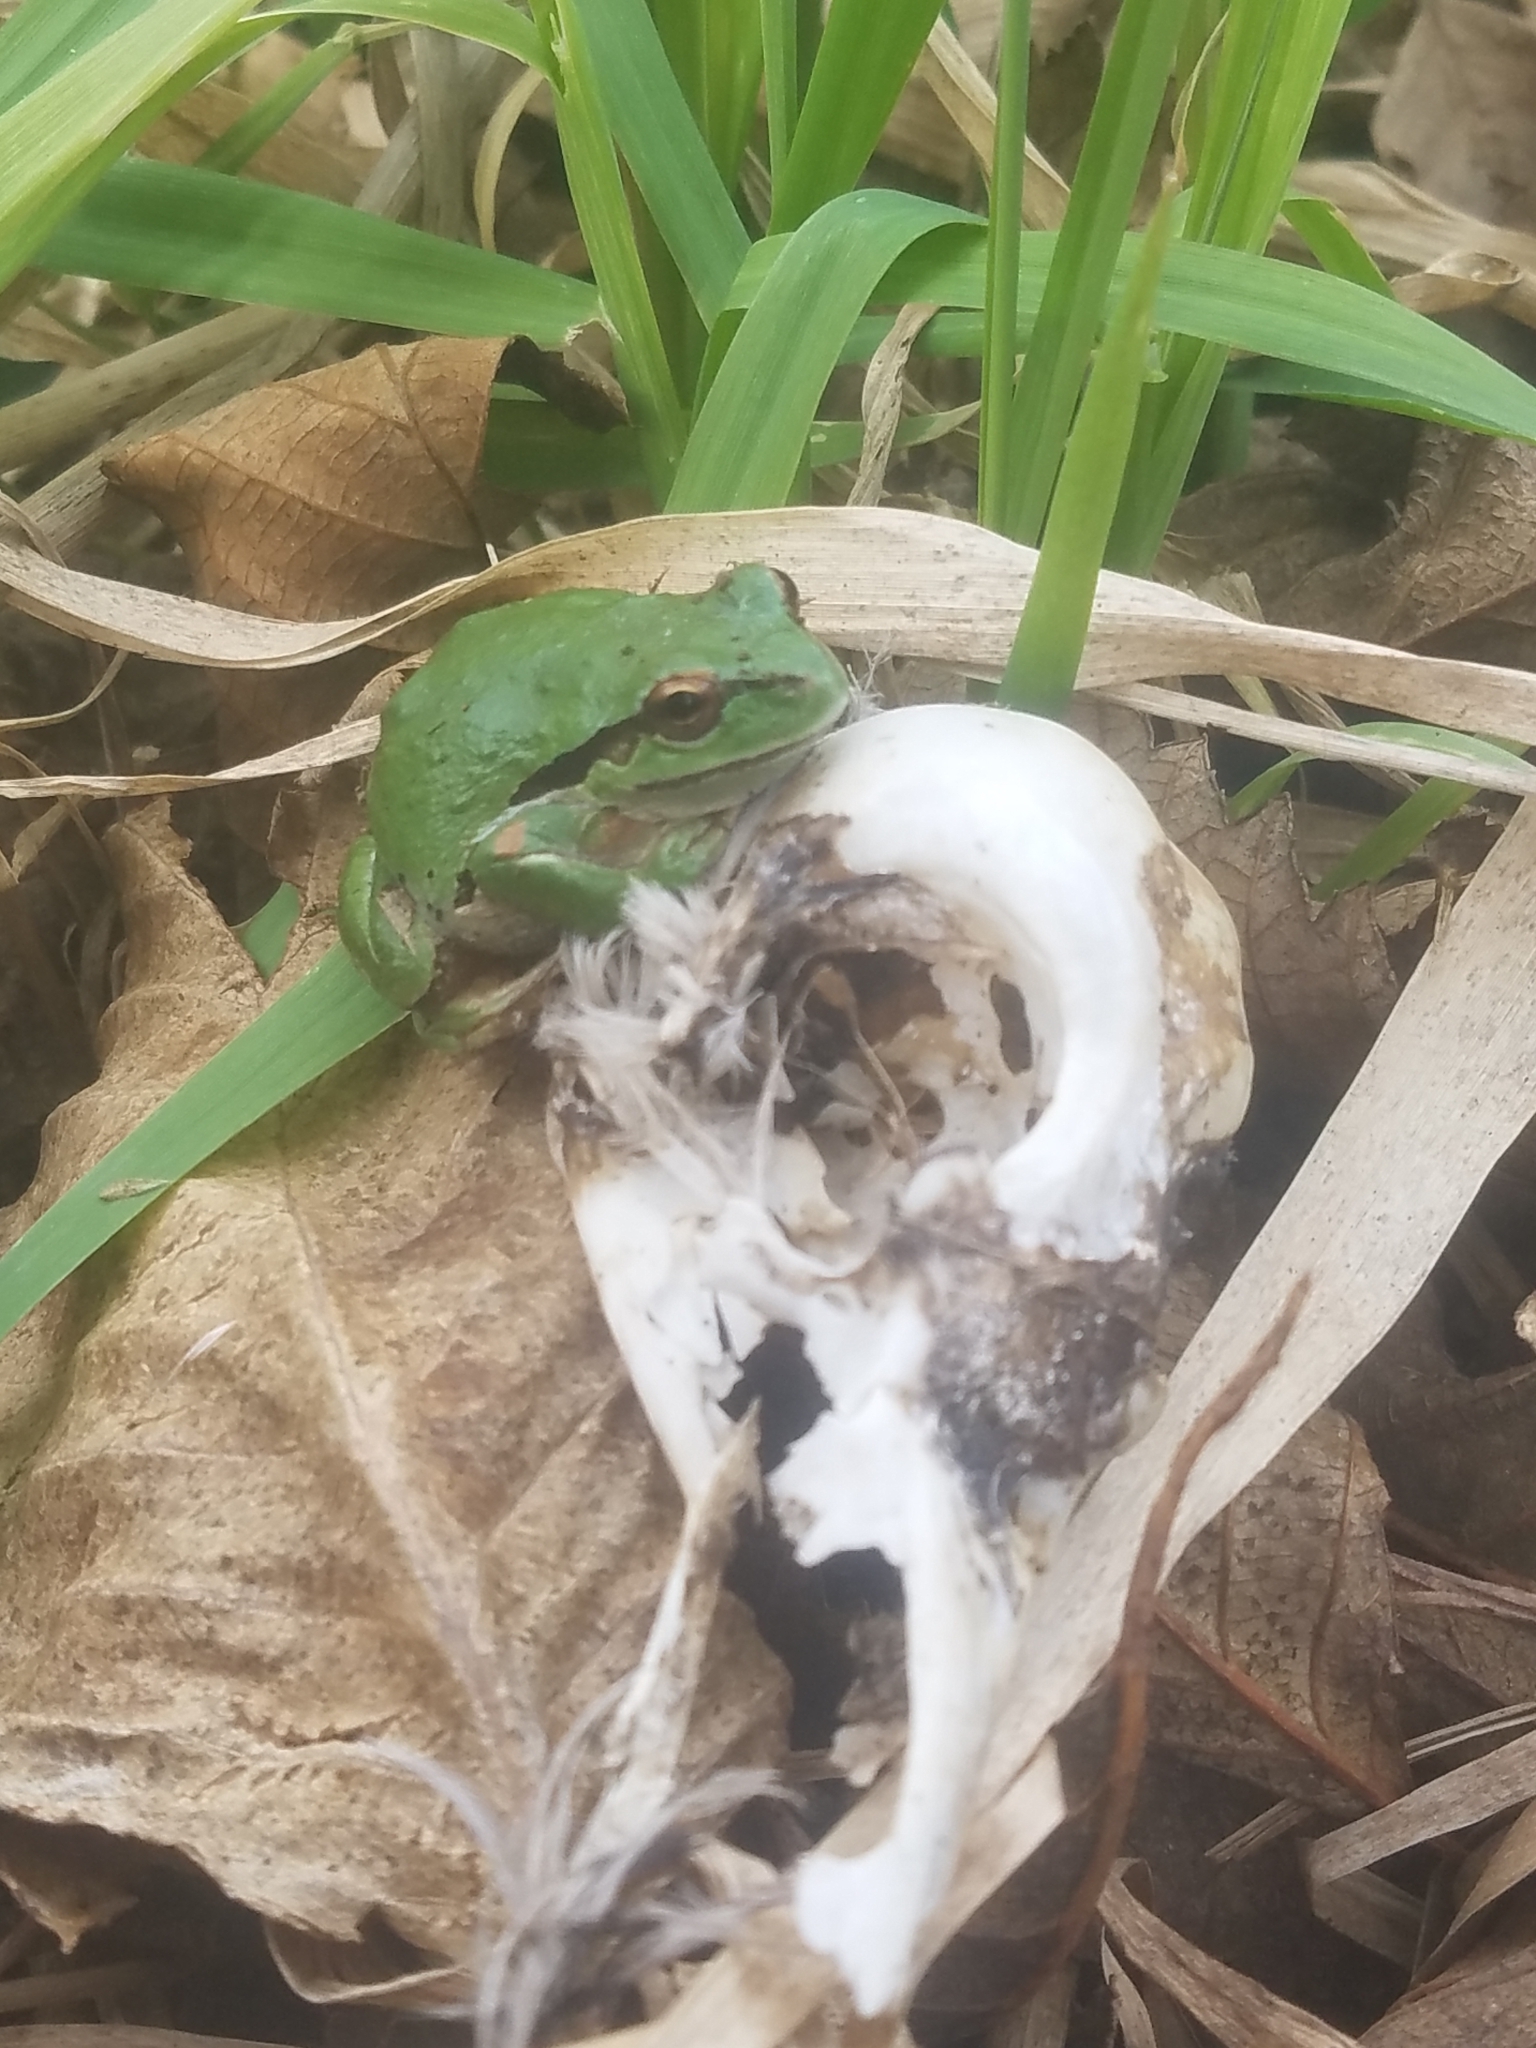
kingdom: Animalia
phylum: Chordata
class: Amphibia
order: Anura
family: Hylidae
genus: Pseudacris
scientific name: Pseudacris regilla
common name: Pacific chorus frog
